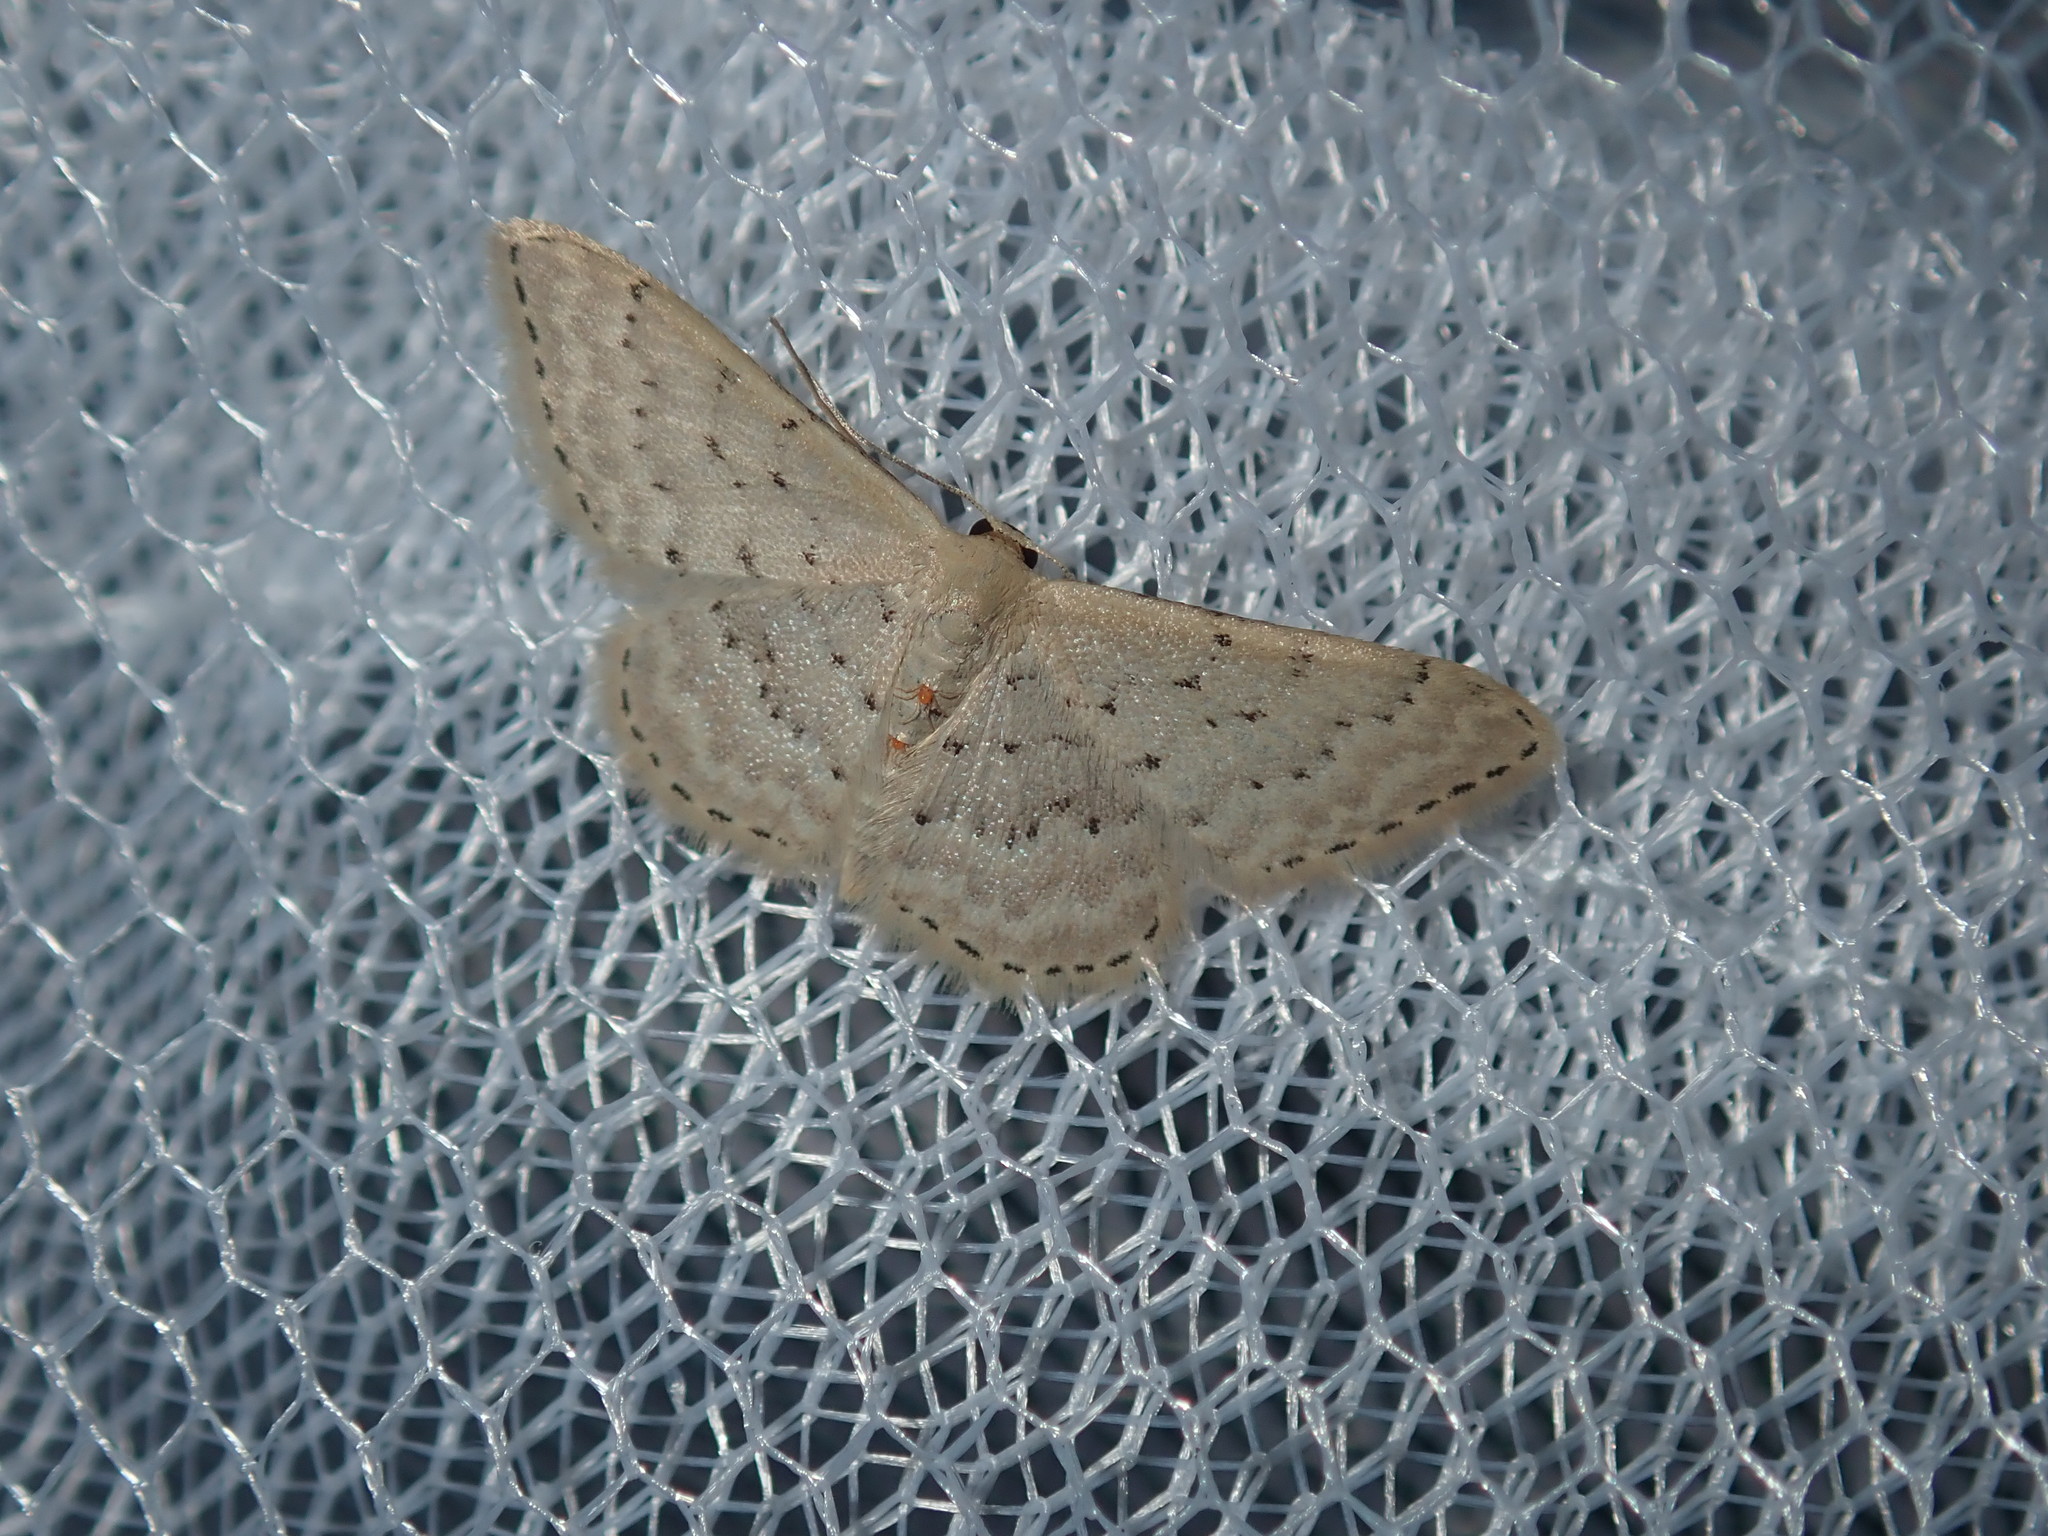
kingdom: Animalia
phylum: Arthropoda
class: Insecta
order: Lepidoptera
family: Geometridae
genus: Idaea
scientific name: Idaea philocosma
